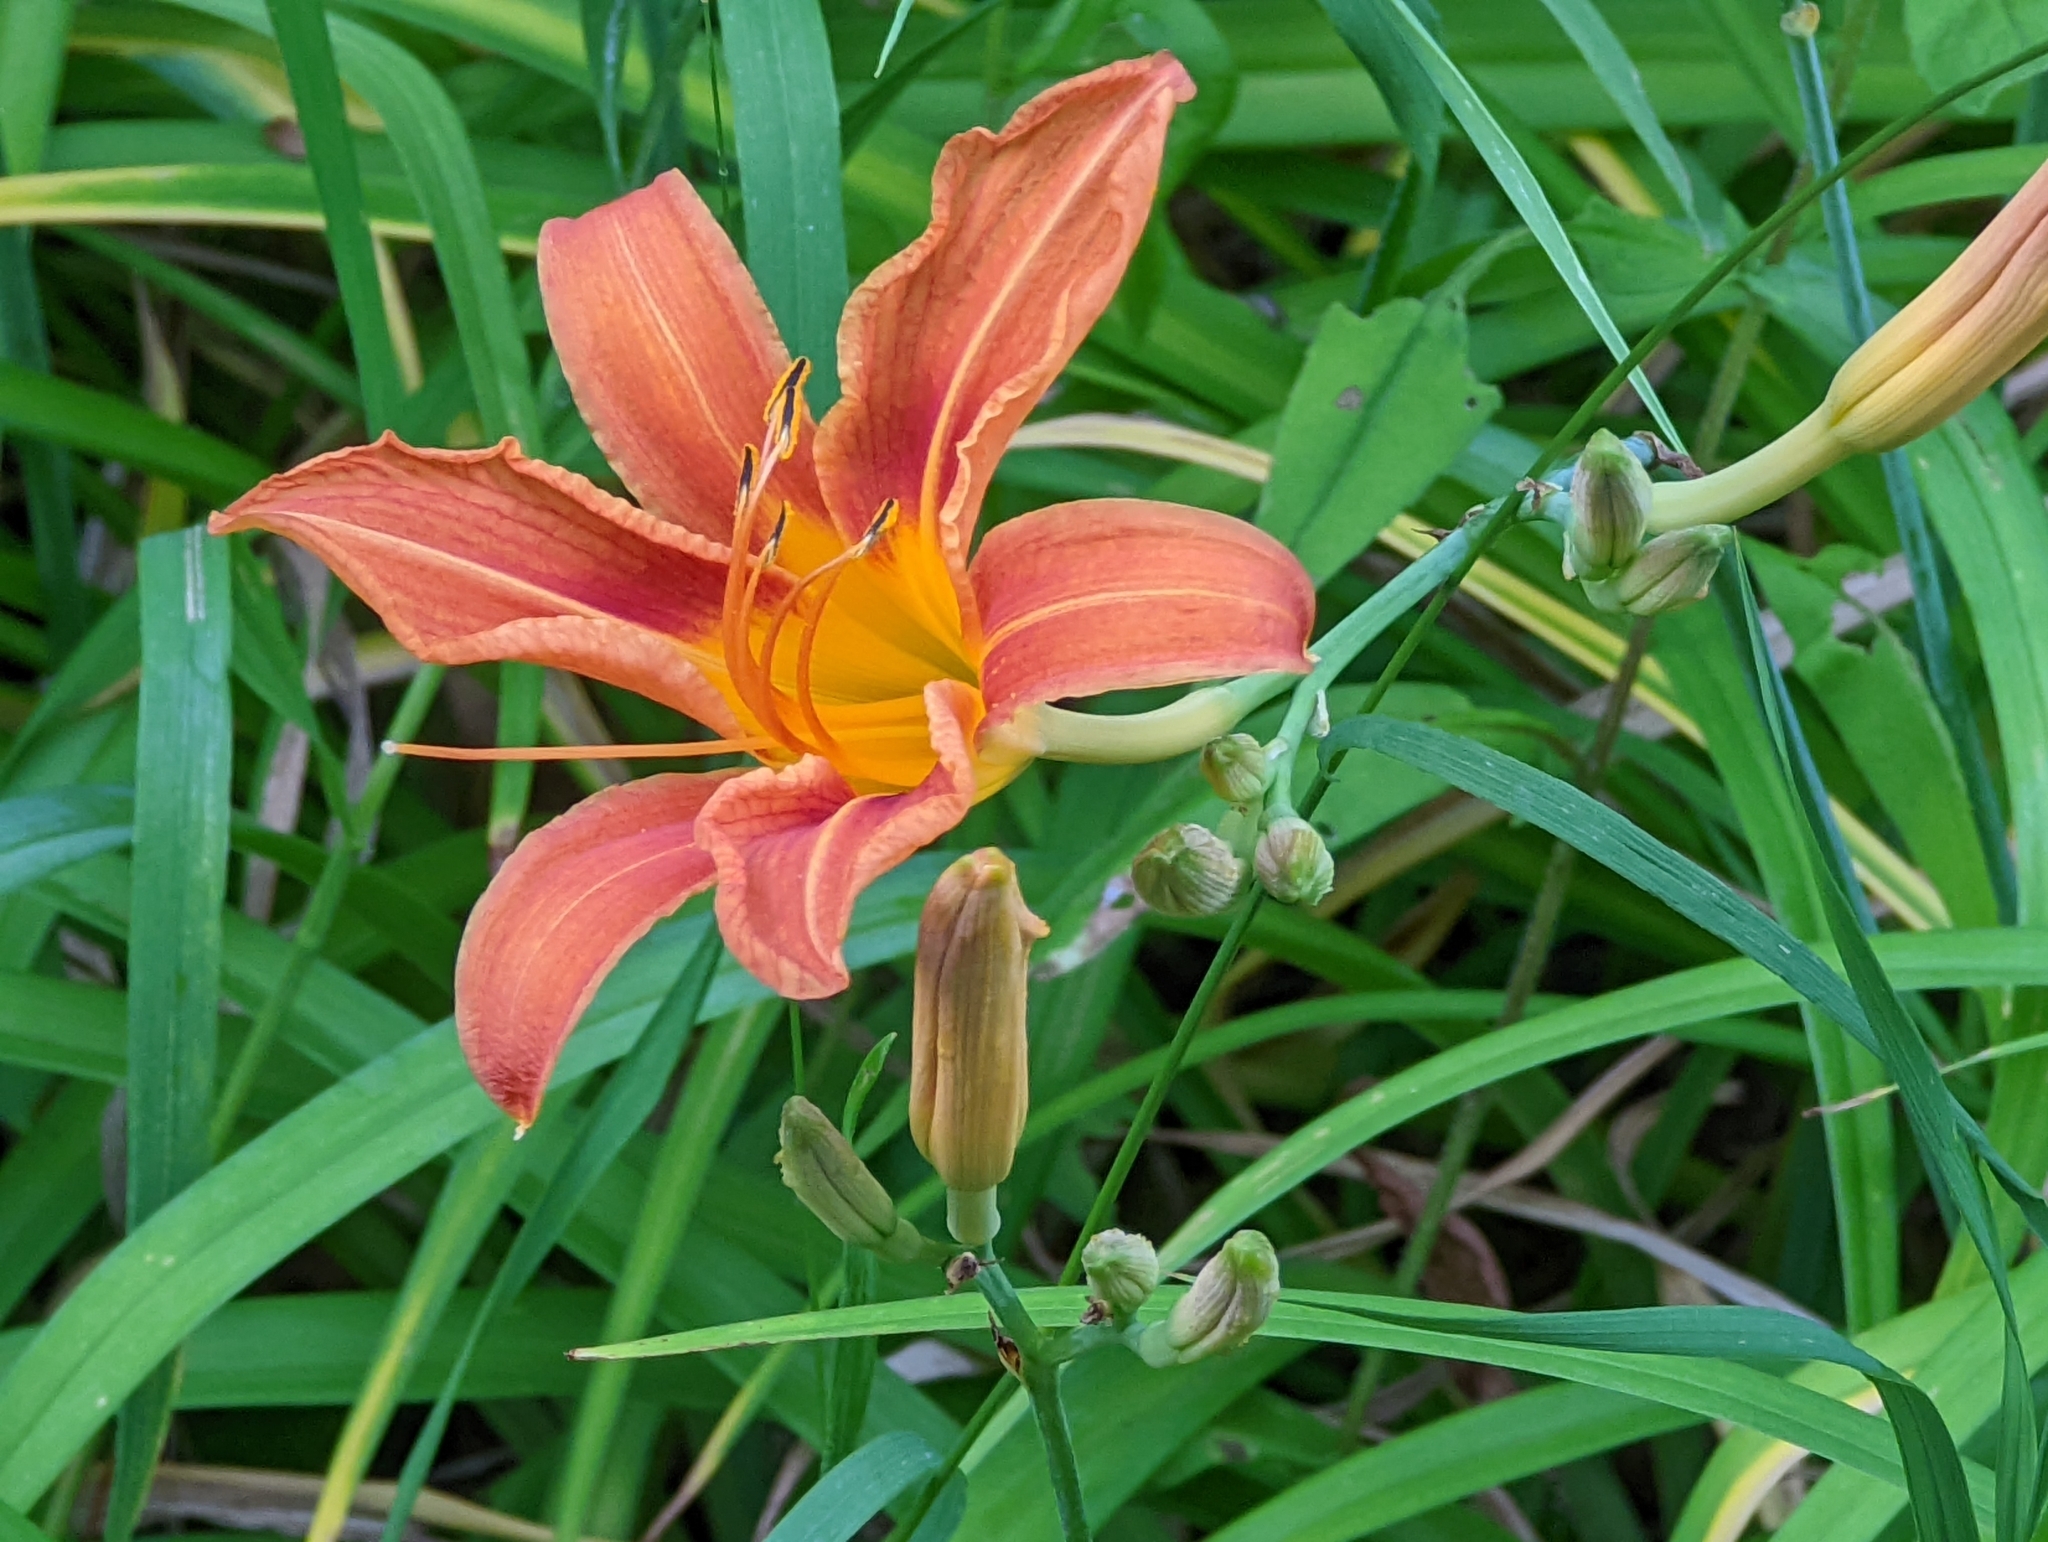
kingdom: Plantae
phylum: Tracheophyta
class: Liliopsida
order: Asparagales
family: Asphodelaceae
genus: Hemerocallis
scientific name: Hemerocallis fulva
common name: Orange day-lily
